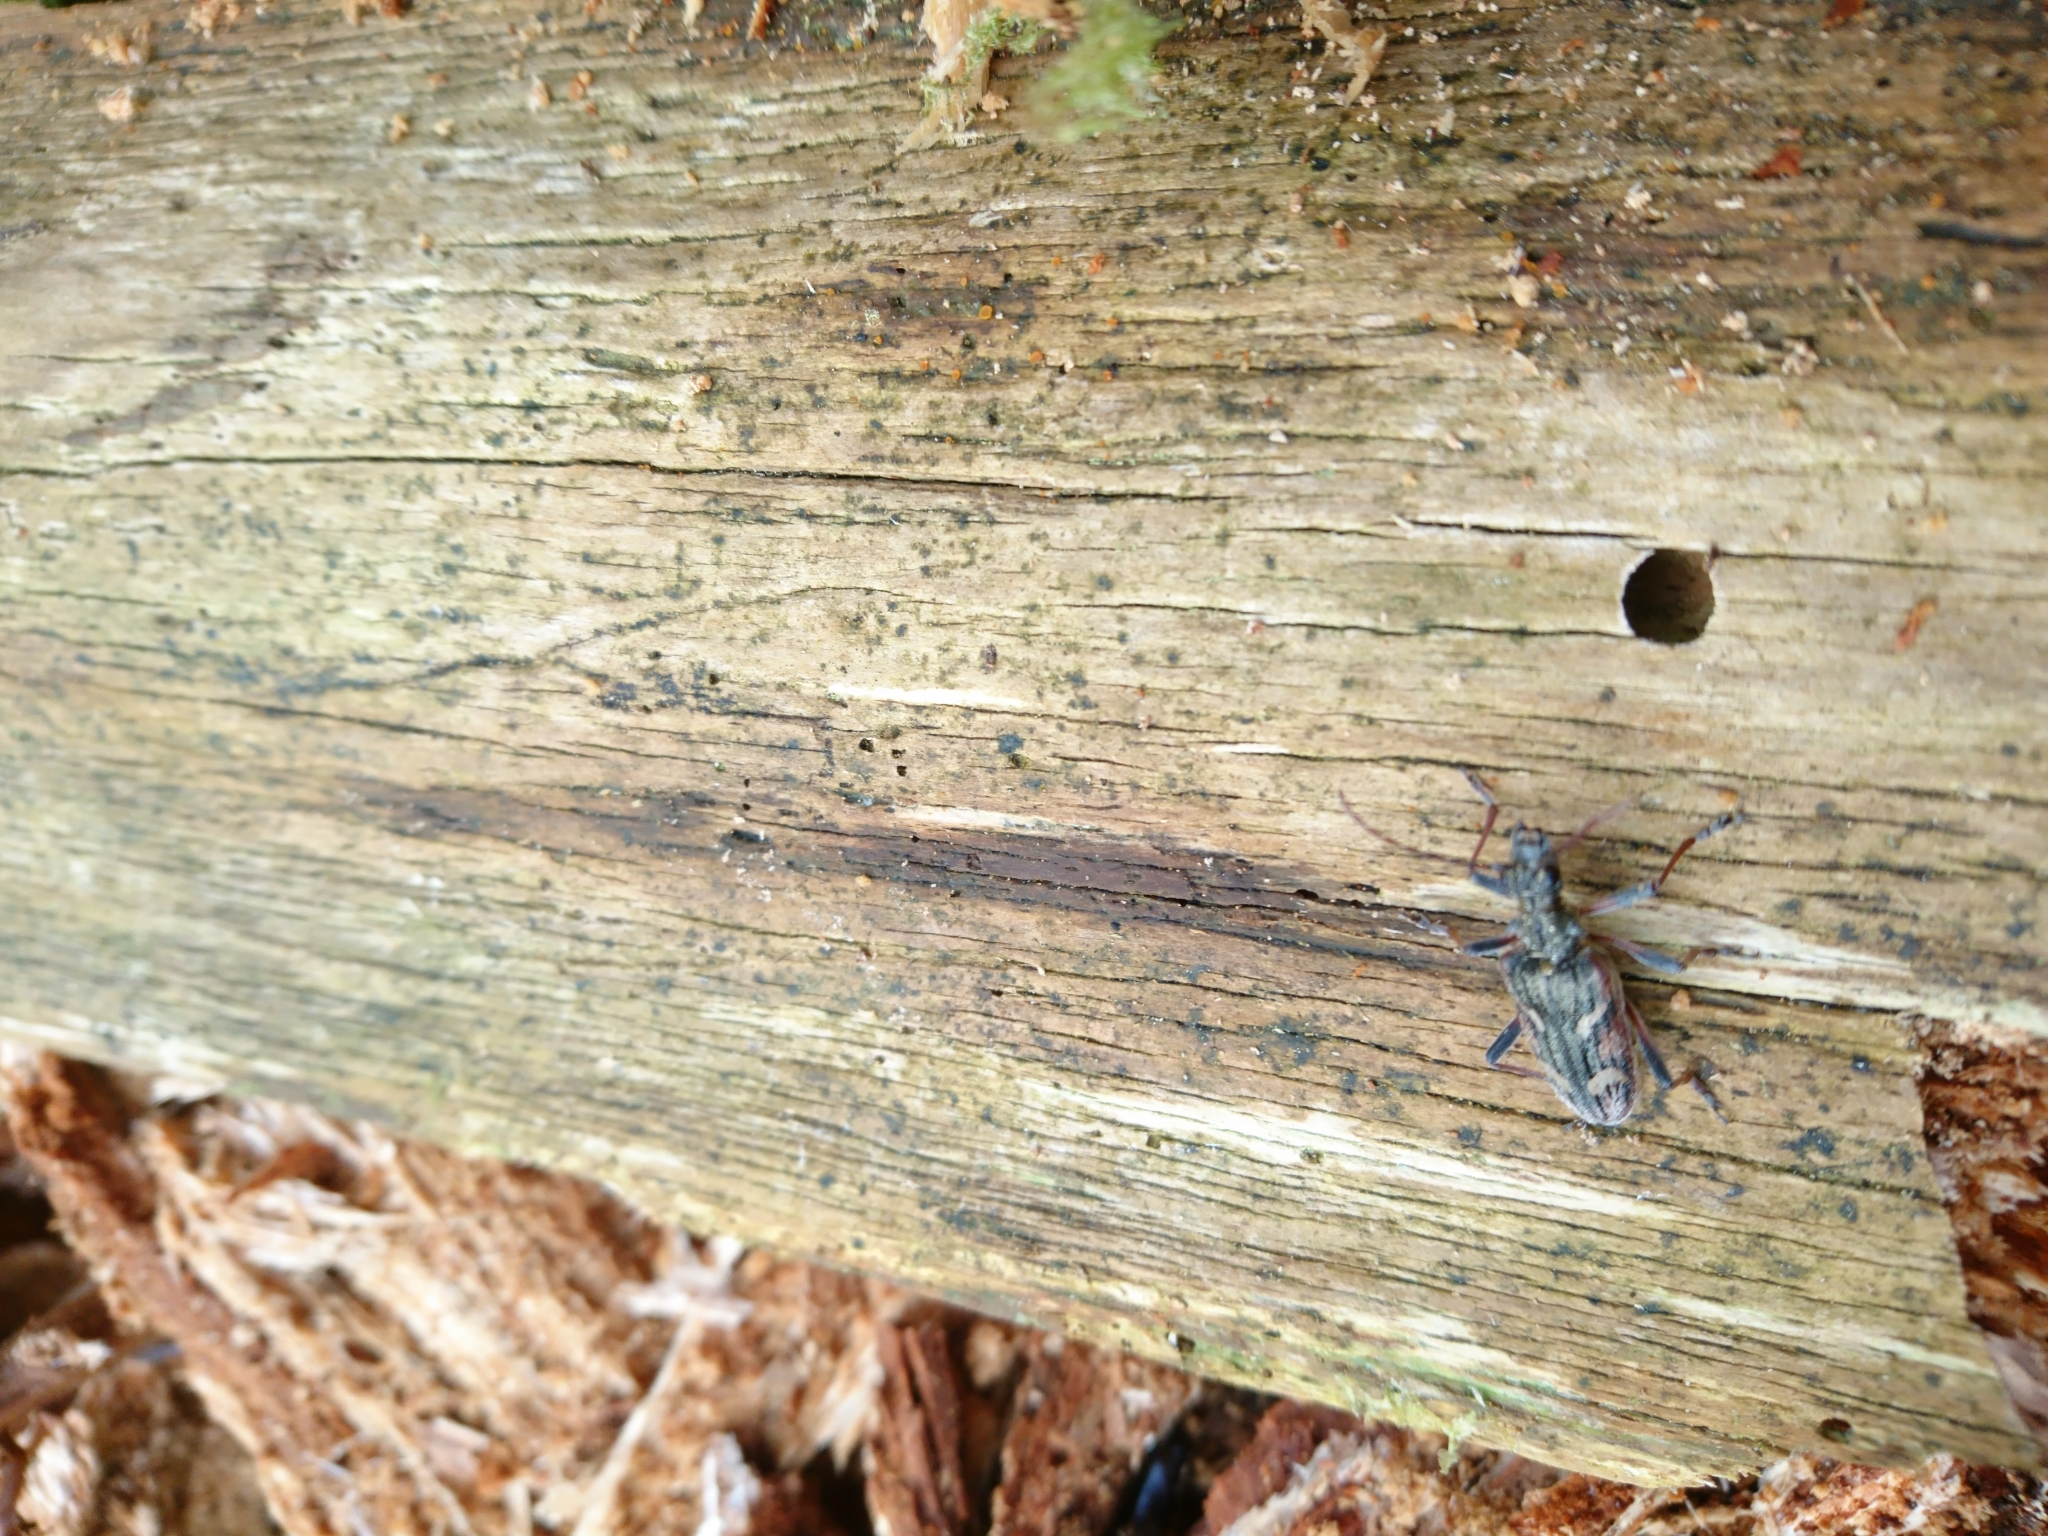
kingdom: Animalia
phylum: Arthropoda
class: Insecta
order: Coleoptera
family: Cerambycidae
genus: Rhagium
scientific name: Rhagium bifasciatum
